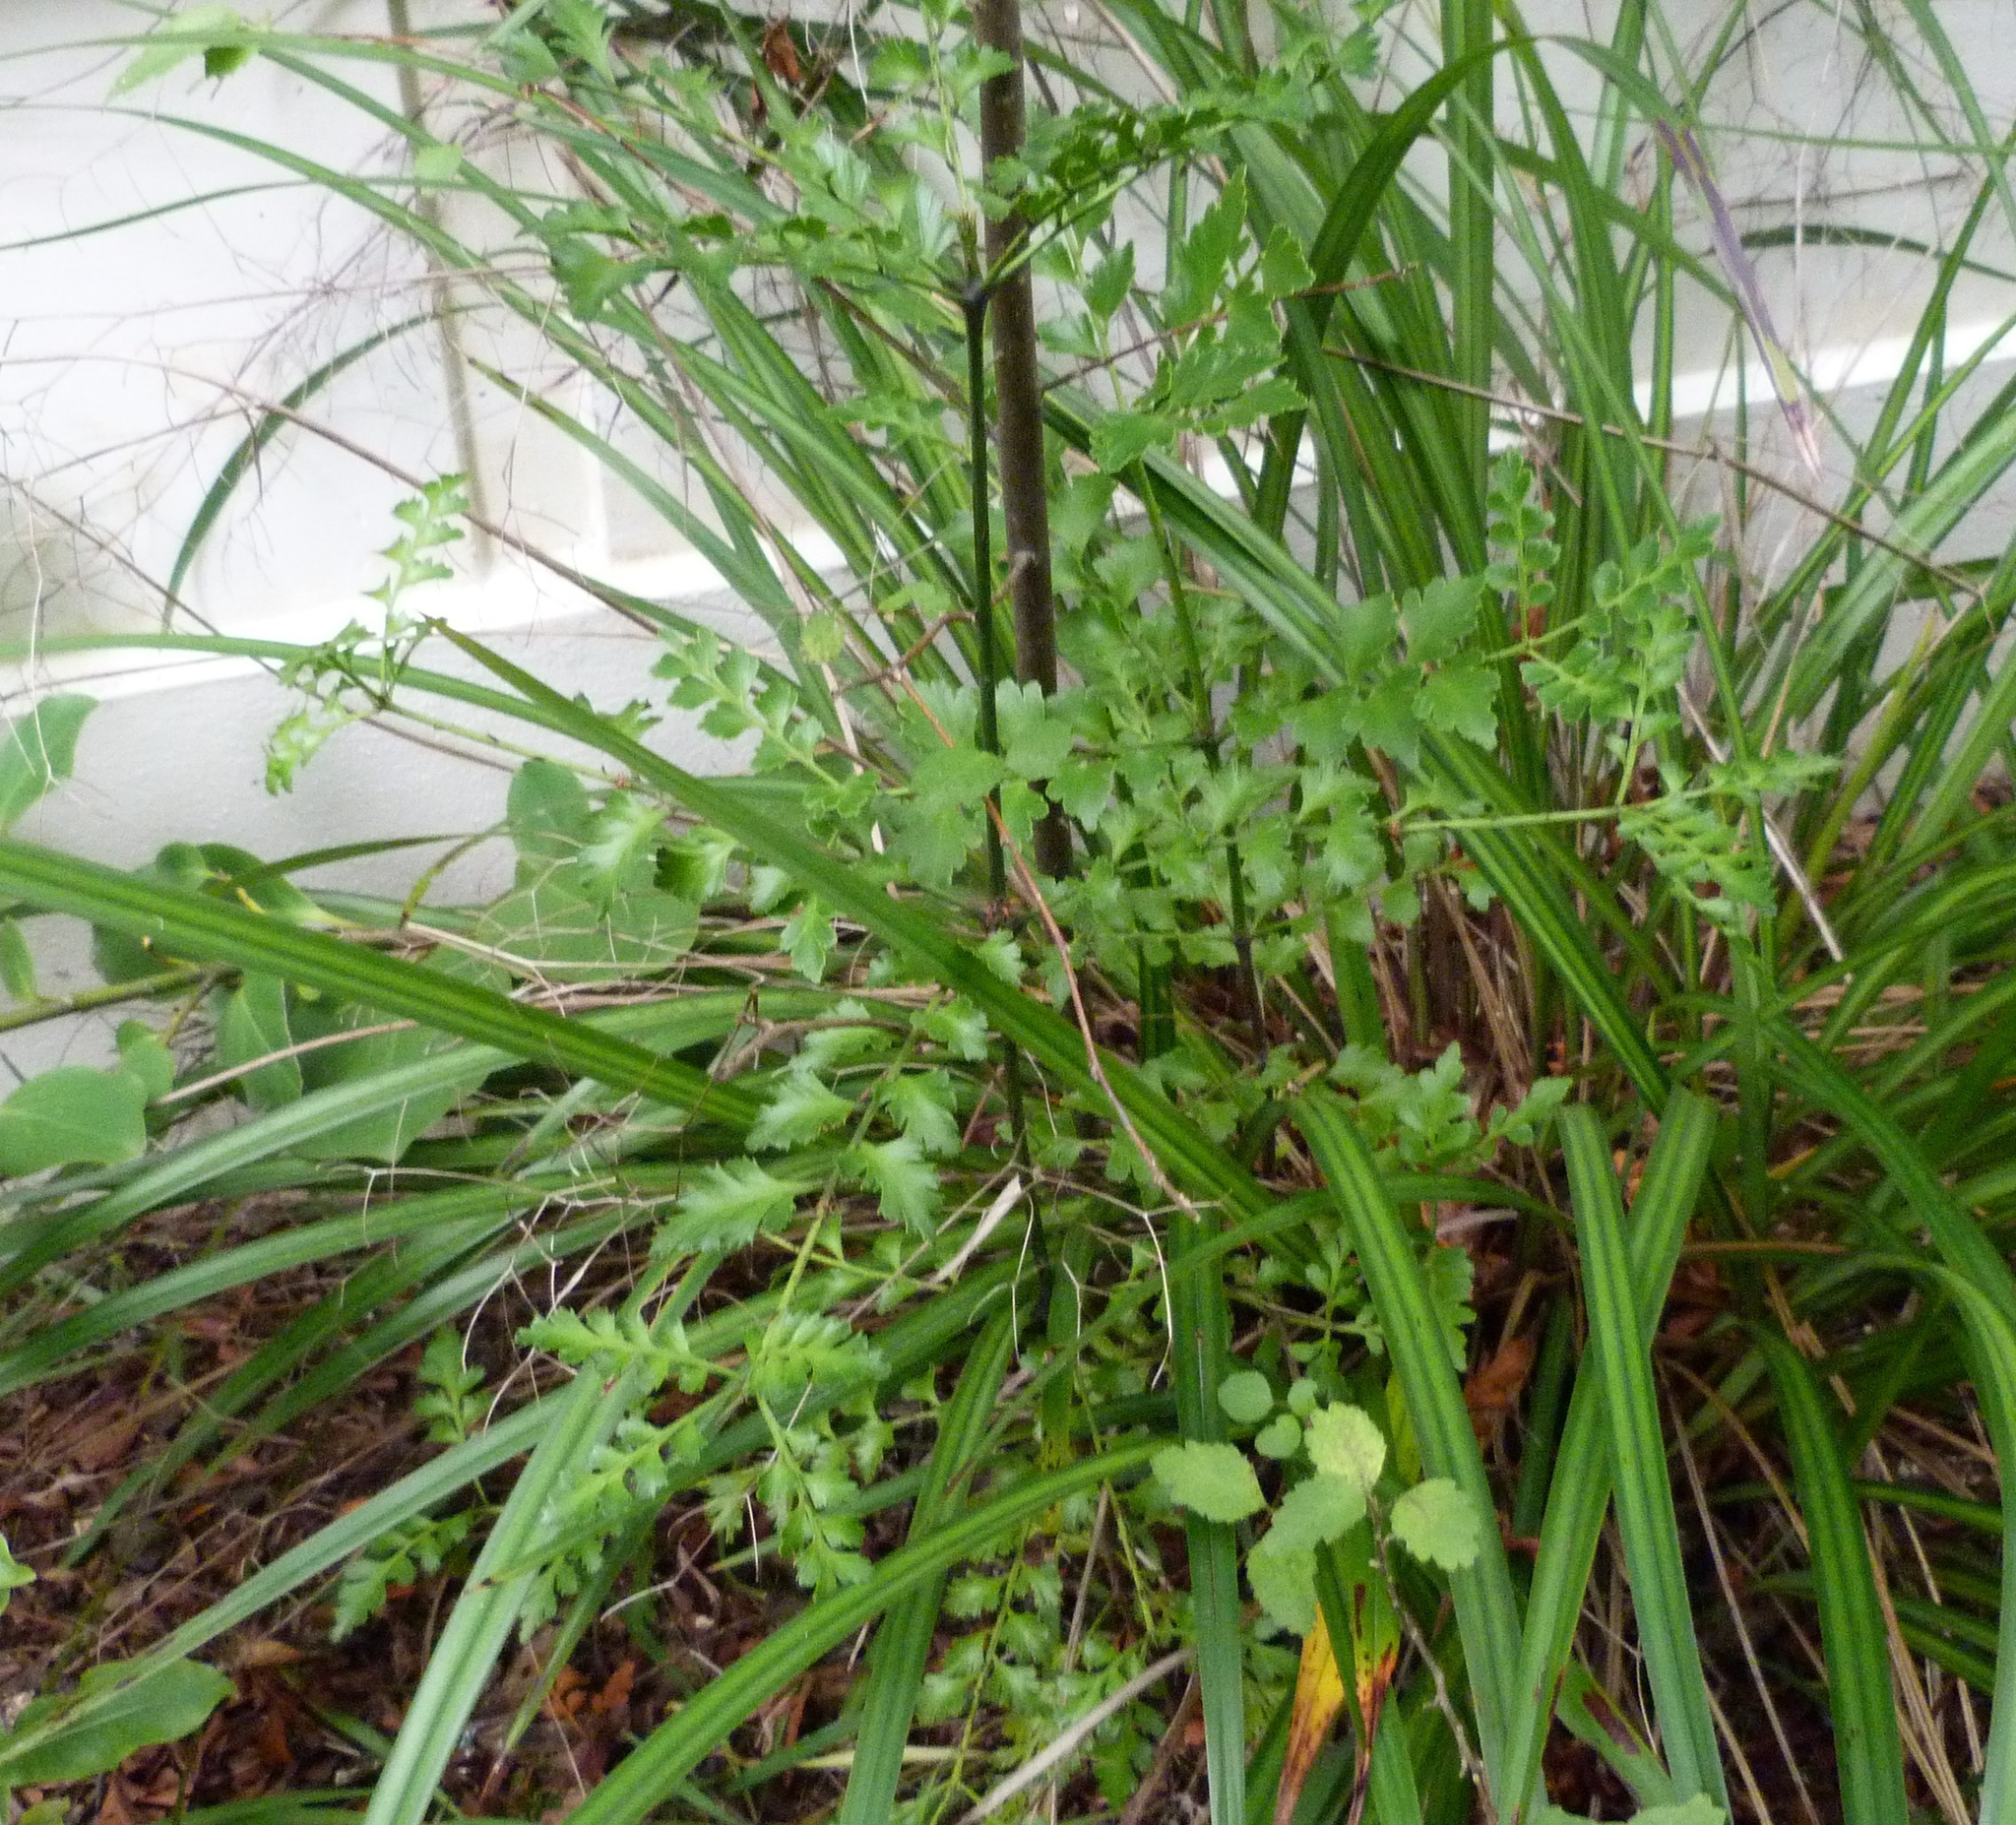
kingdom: Plantae
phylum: Tracheophyta
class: Pinopsida
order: Pinales
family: Phyllocladaceae
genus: Phyllocladus
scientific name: Phyllocladus trichomanoides
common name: Celery pine
